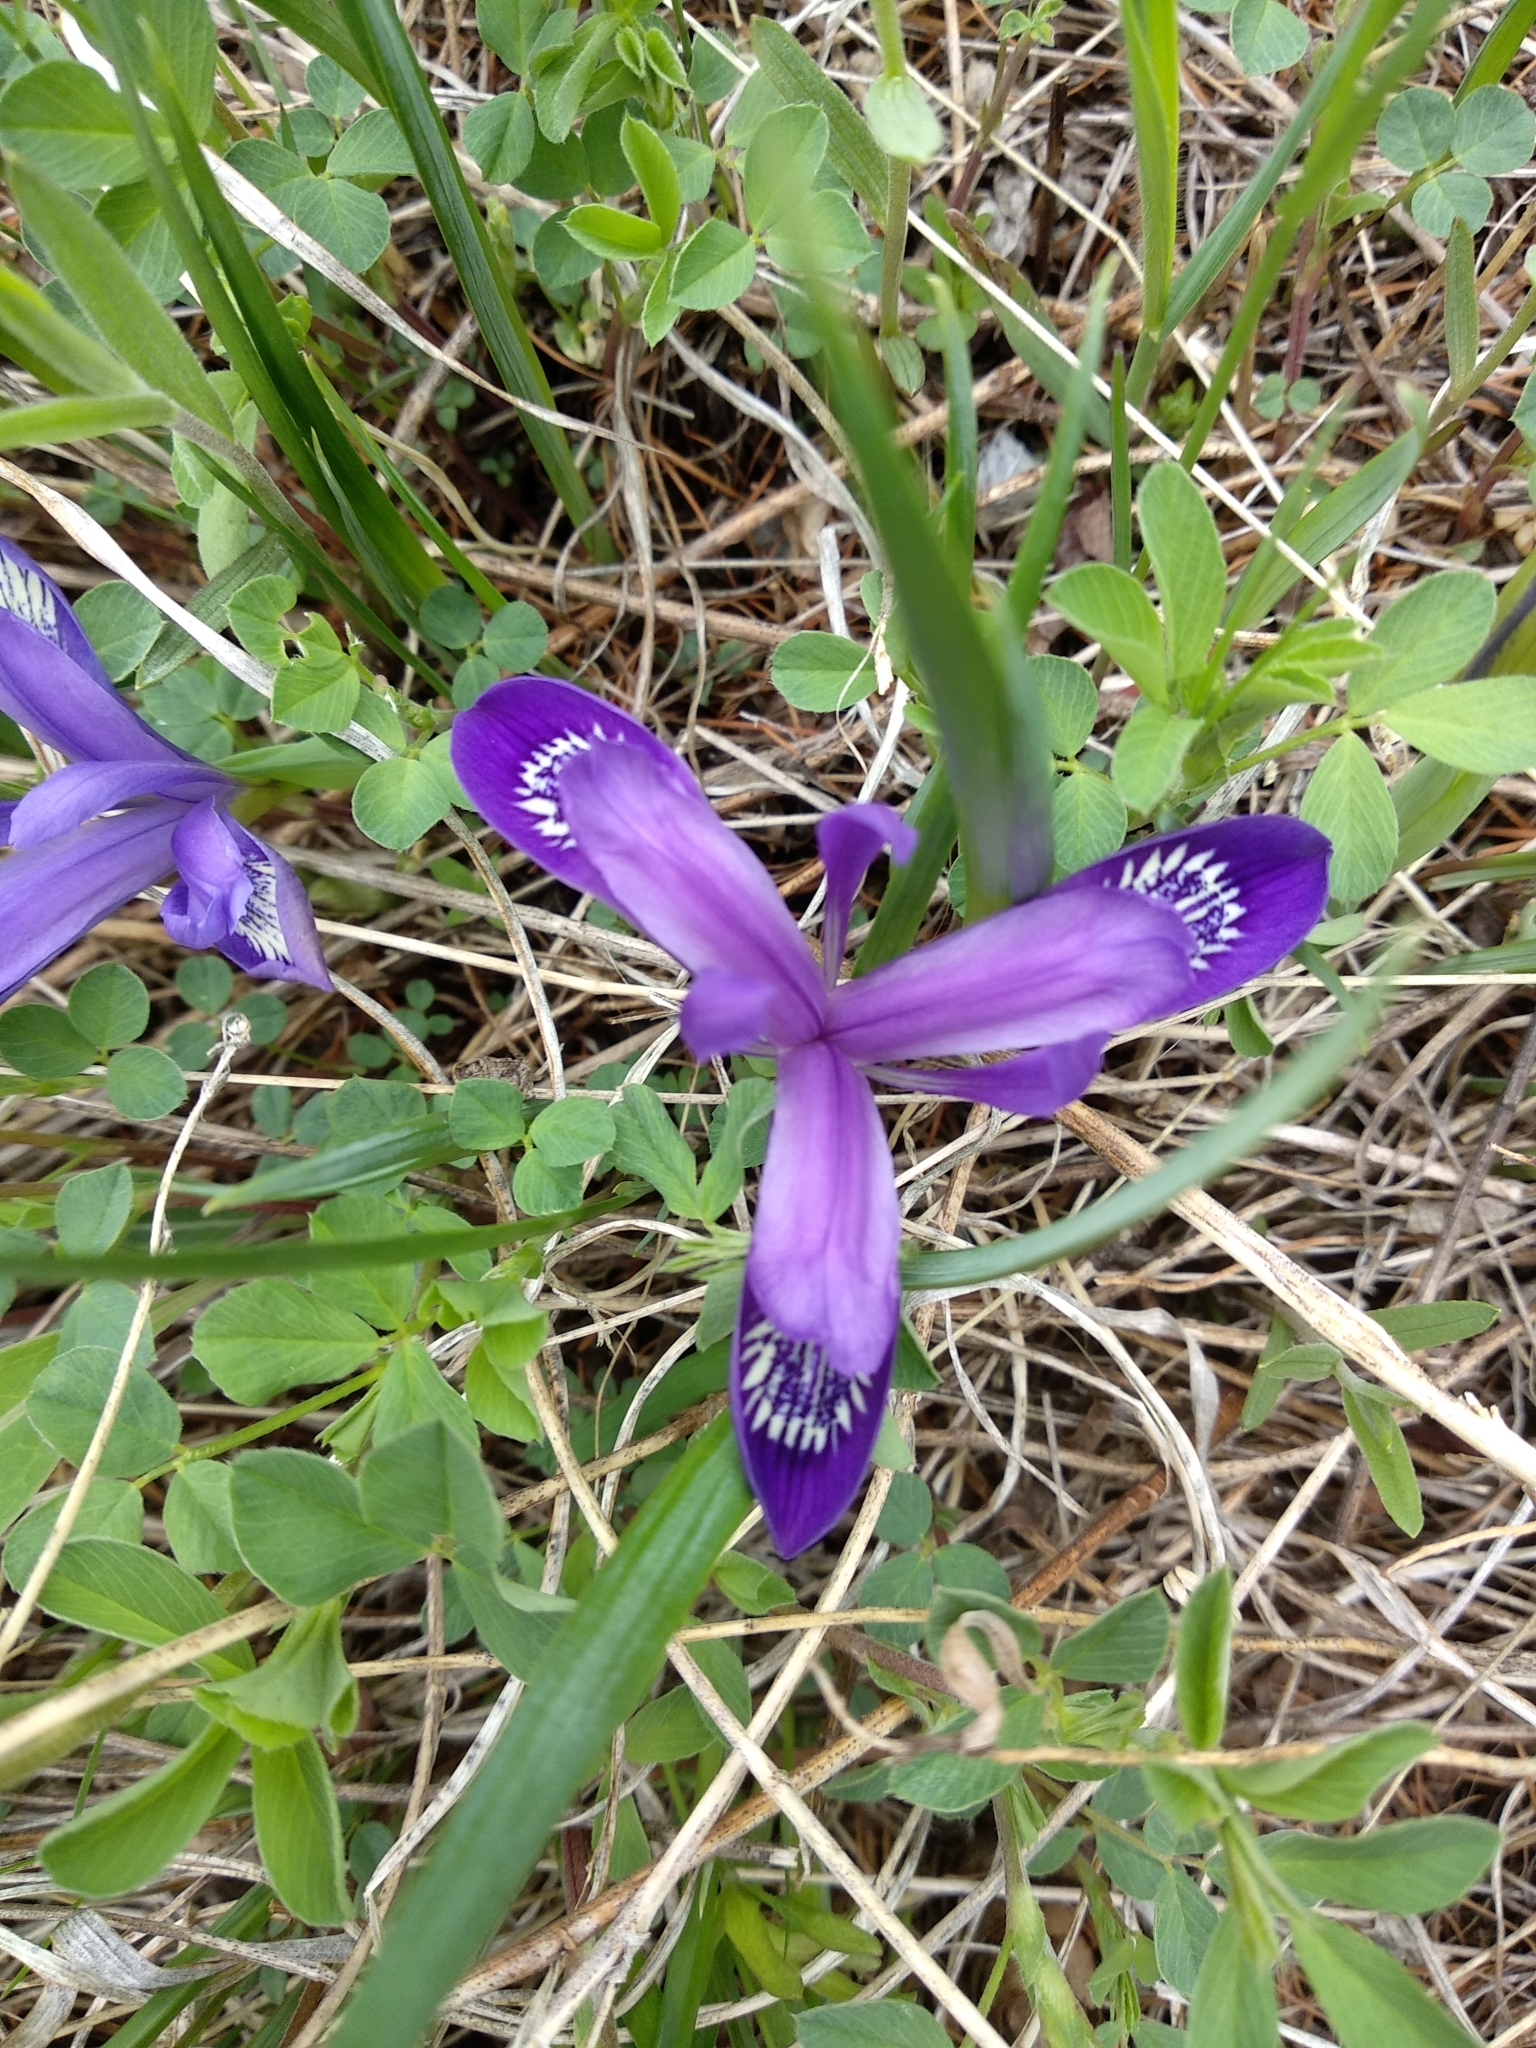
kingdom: Plantae
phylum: Tracheophyta
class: Liliopsida
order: Asparagales
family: Iridaceae
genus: Iris
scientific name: Iris ruthenica
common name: Purple-bract iris
